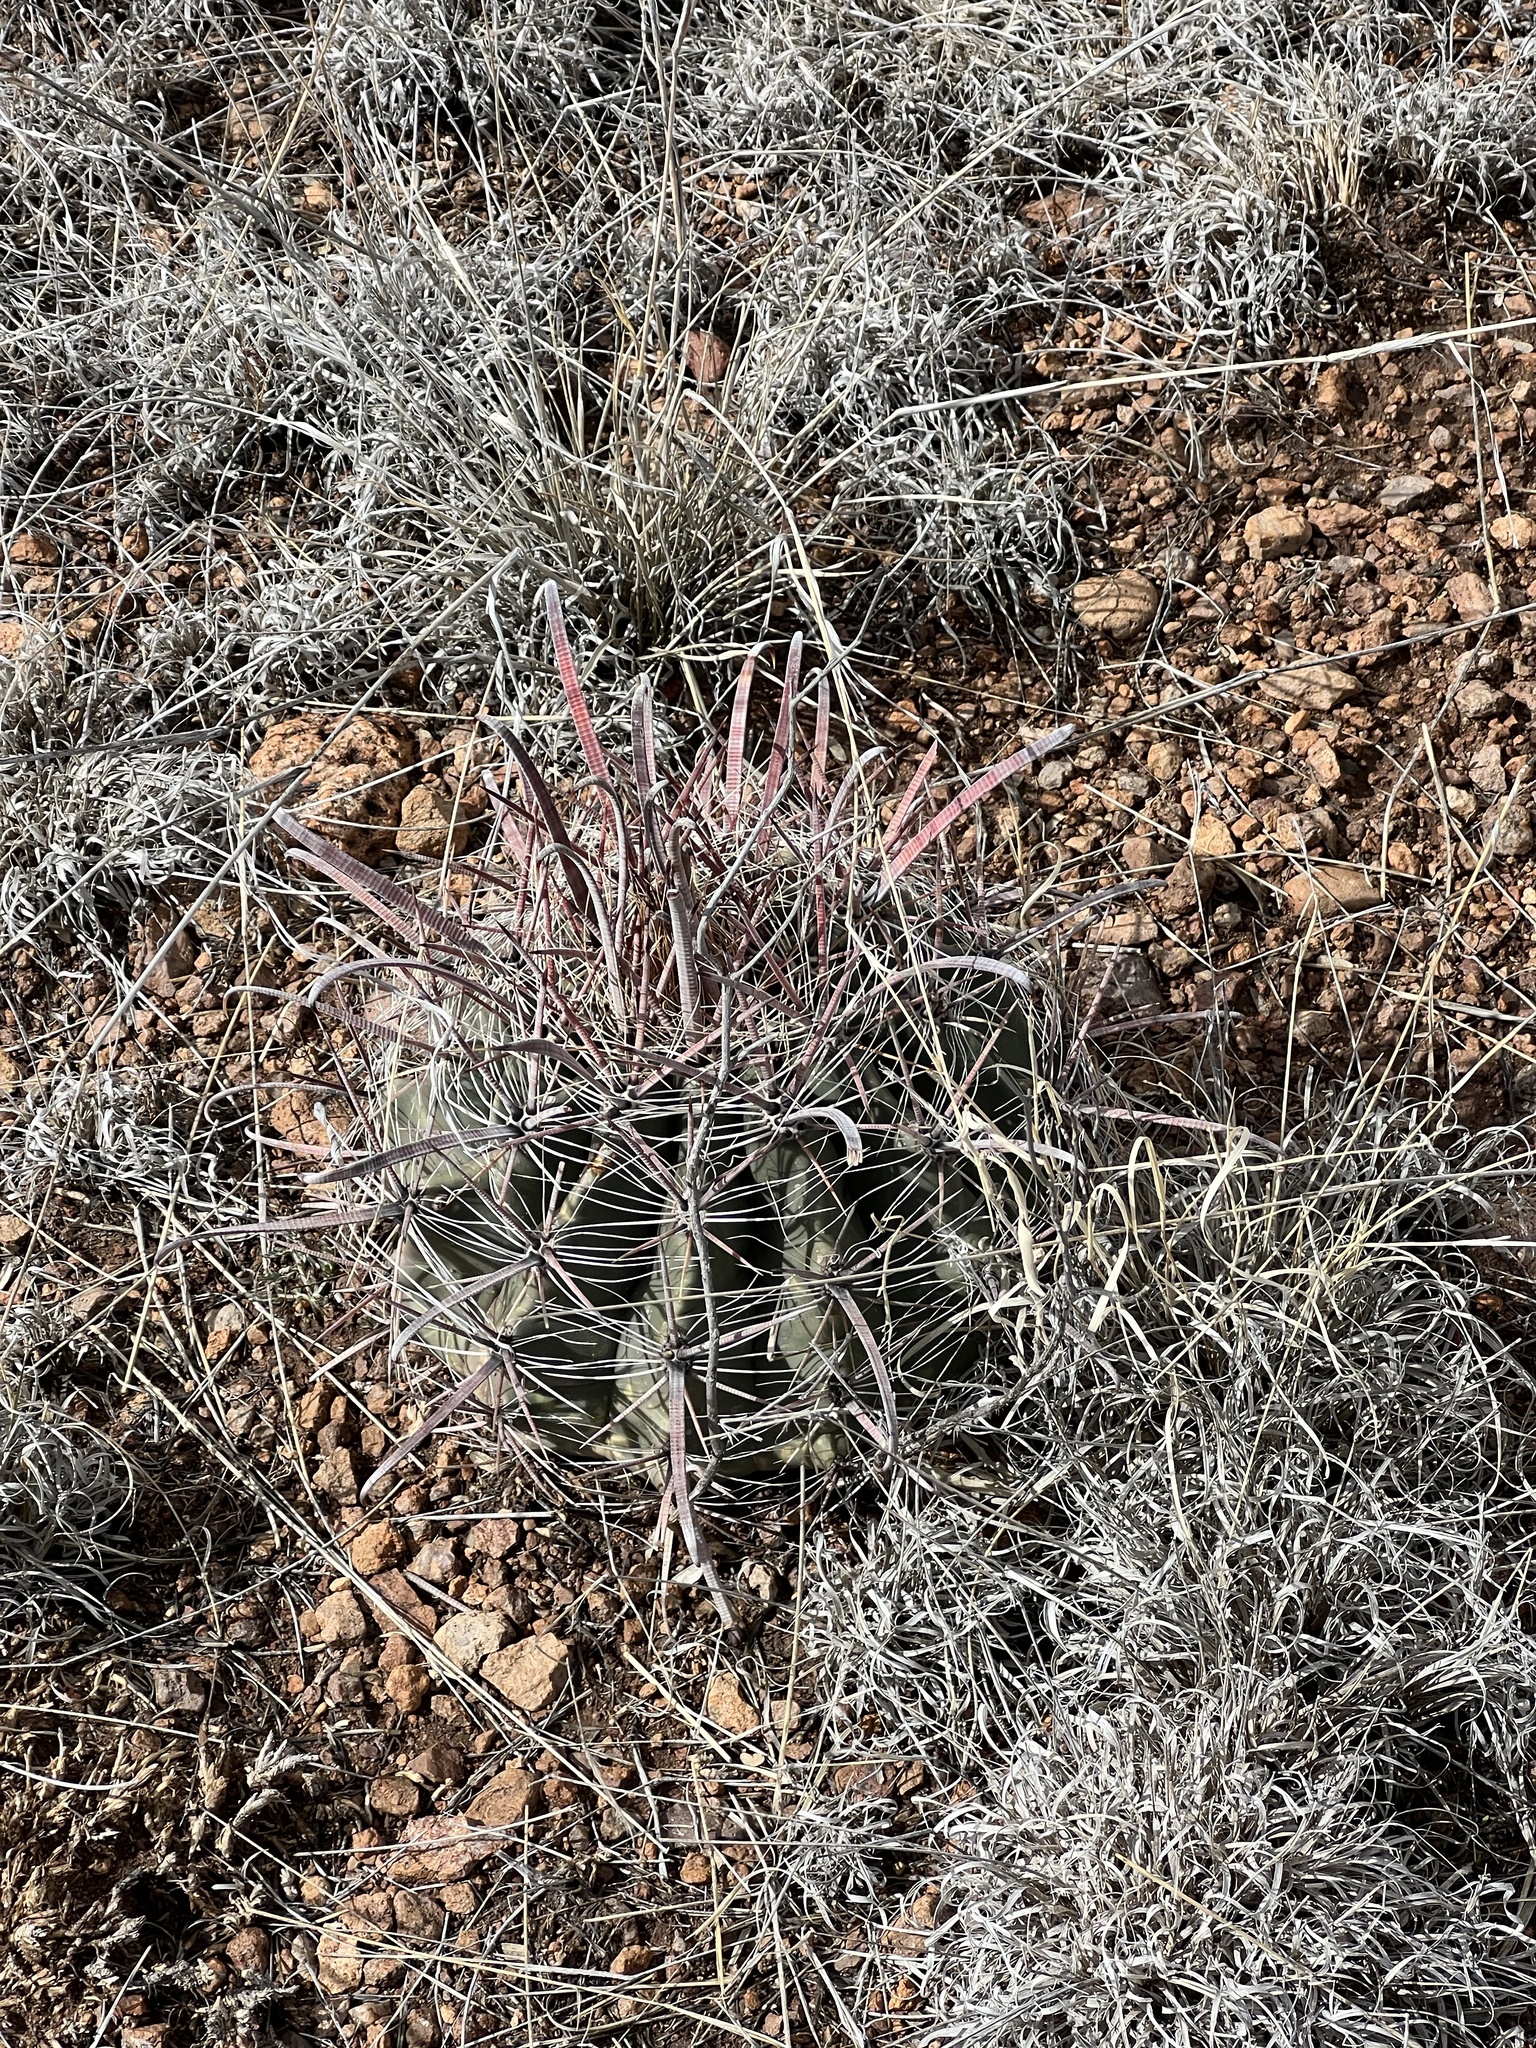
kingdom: Plantae
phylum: Tracheophyta
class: Magnoliopsida
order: Caryophyllales
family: Cactaceae
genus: Ferocactus
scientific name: Ferocactus wislizeni
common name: Candy barrel cactus
